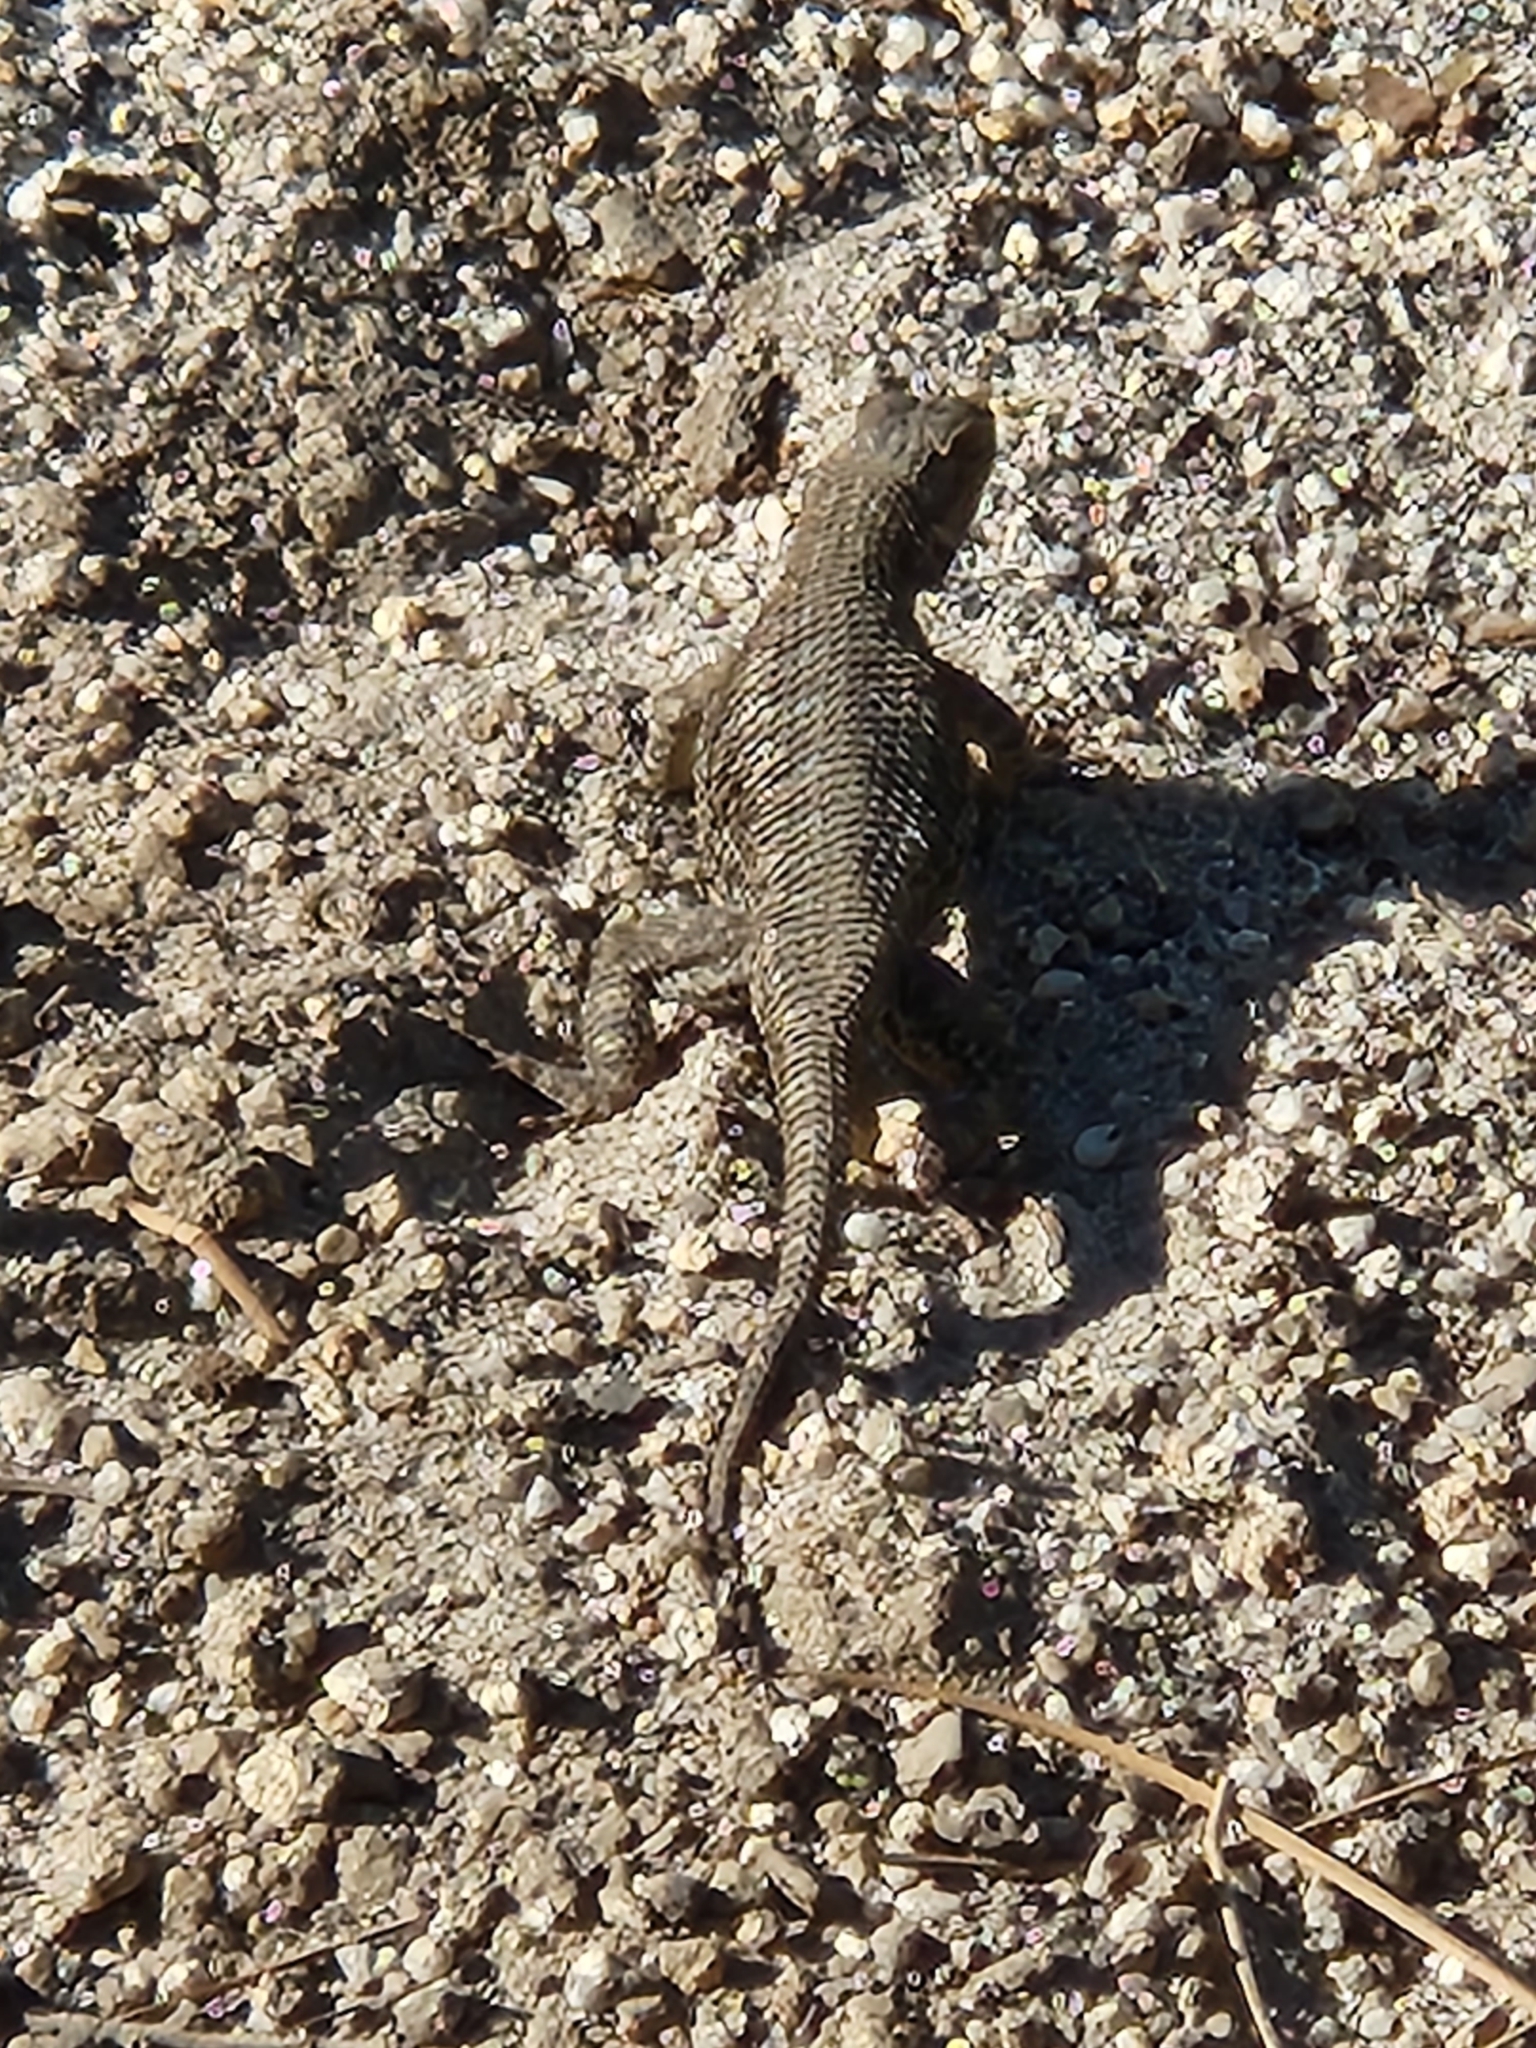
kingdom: Animalia
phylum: Chordata
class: Squamata
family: Phrynosomatidae
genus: Sceloporus
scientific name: Sceloporus occidentalis
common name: Western fence lizard
